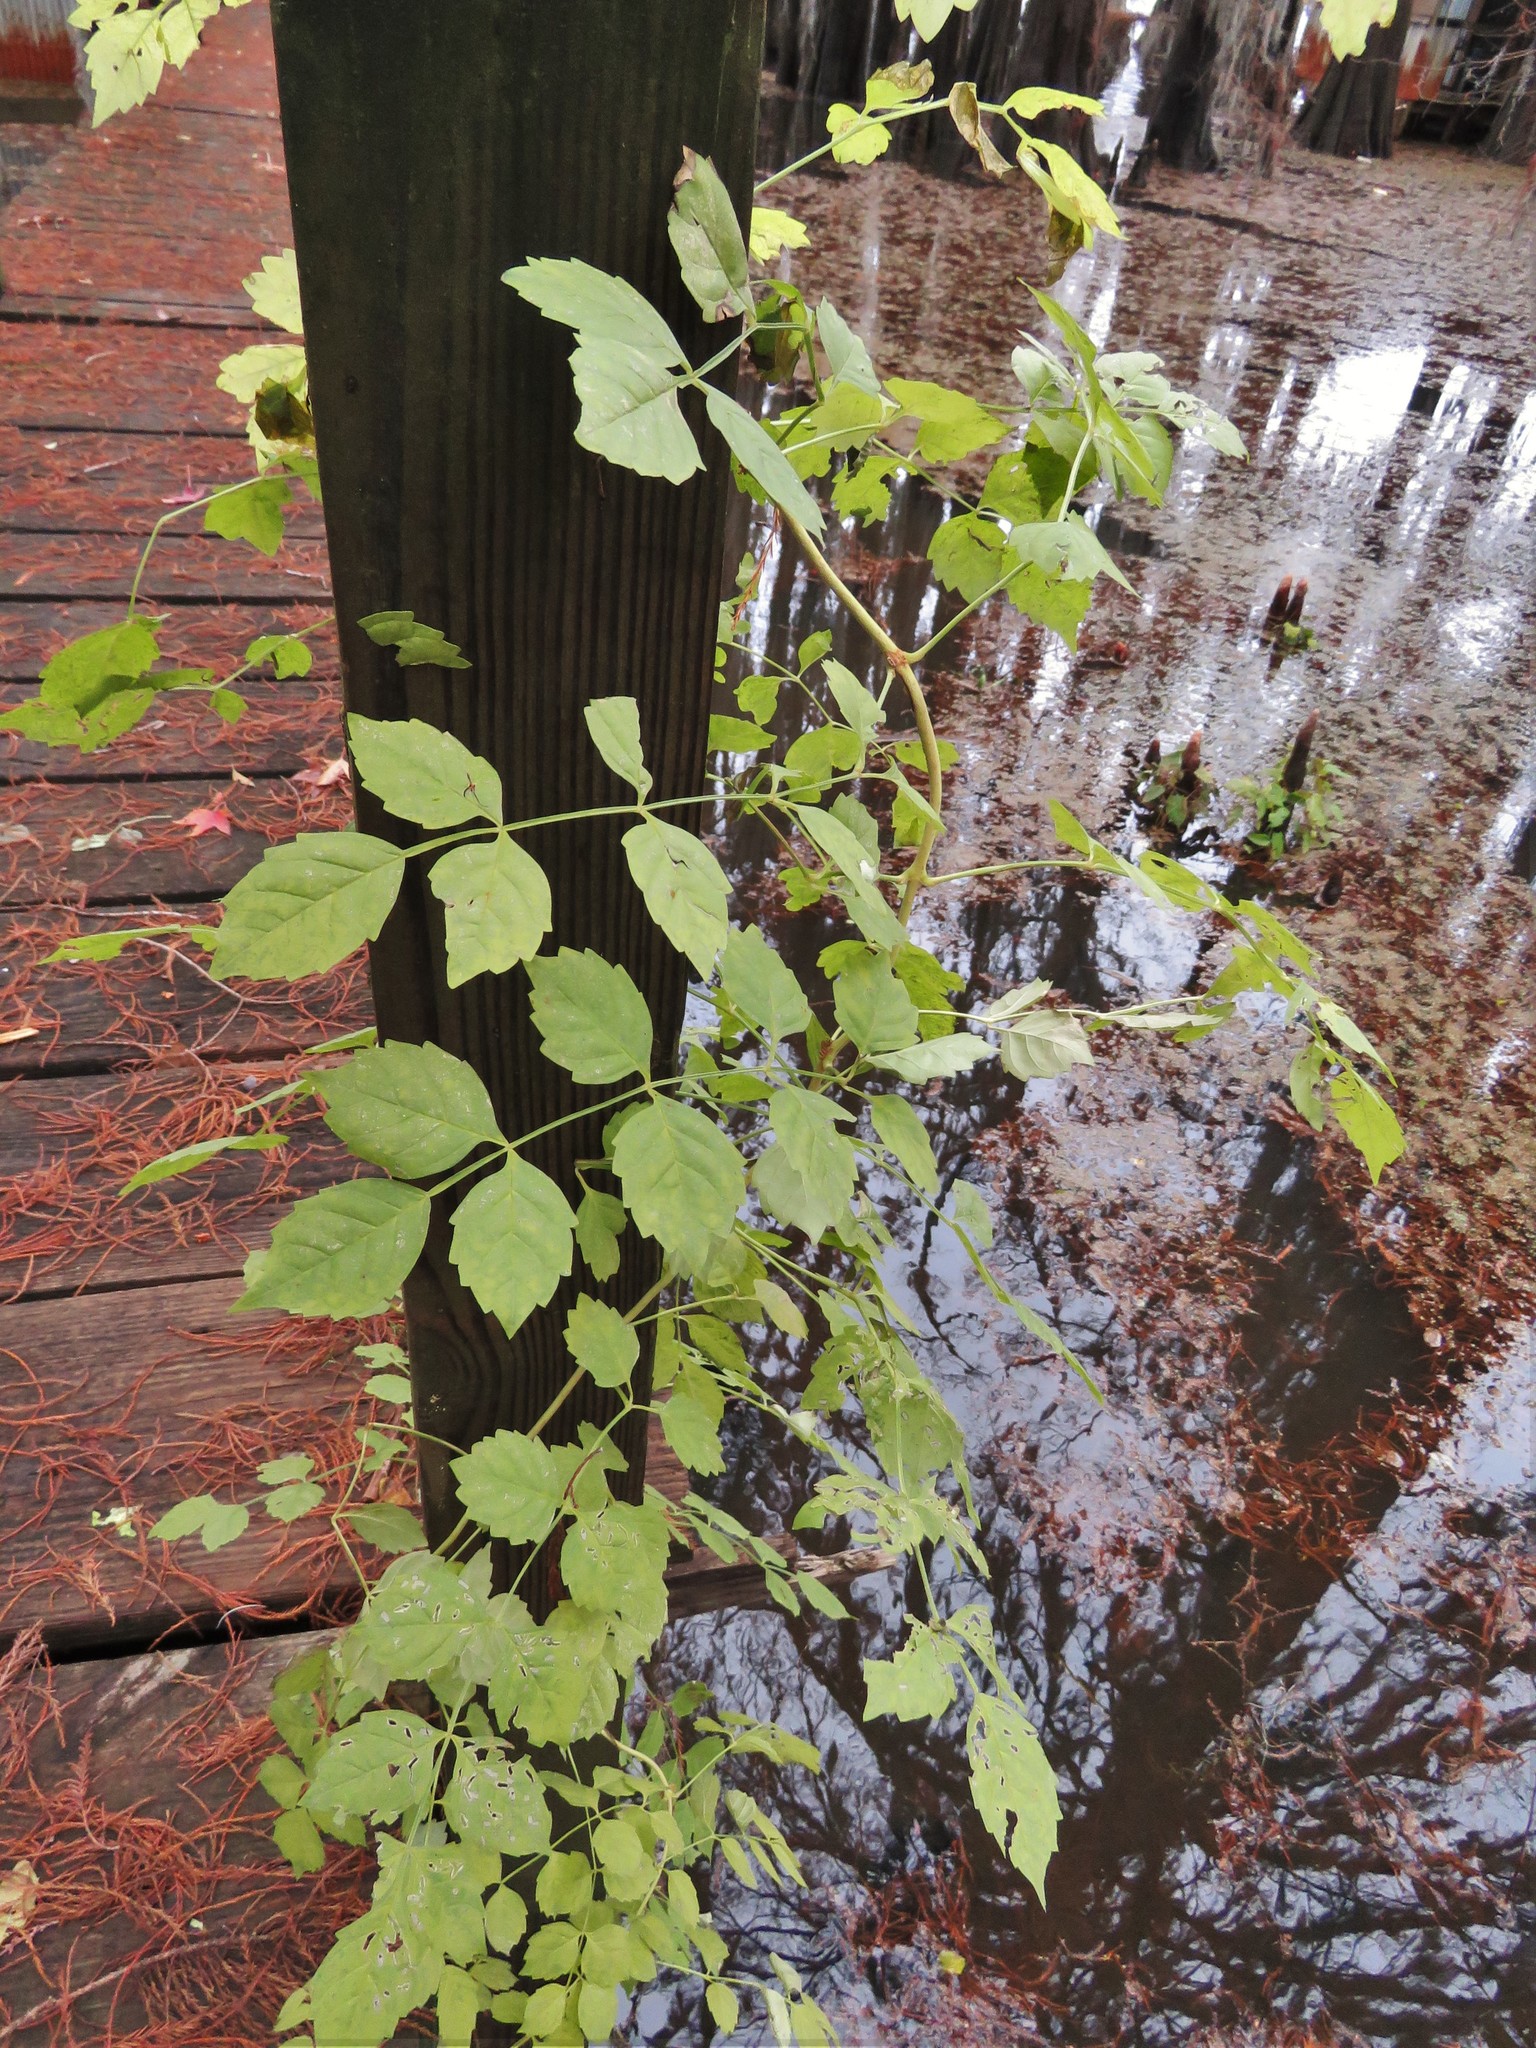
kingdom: Plantae
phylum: Tracheophyta
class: Magnoliopsida
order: Lamiales
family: Bignoniaceae
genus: Campsis
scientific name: Campsis radicans
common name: Trumpet-creeper
